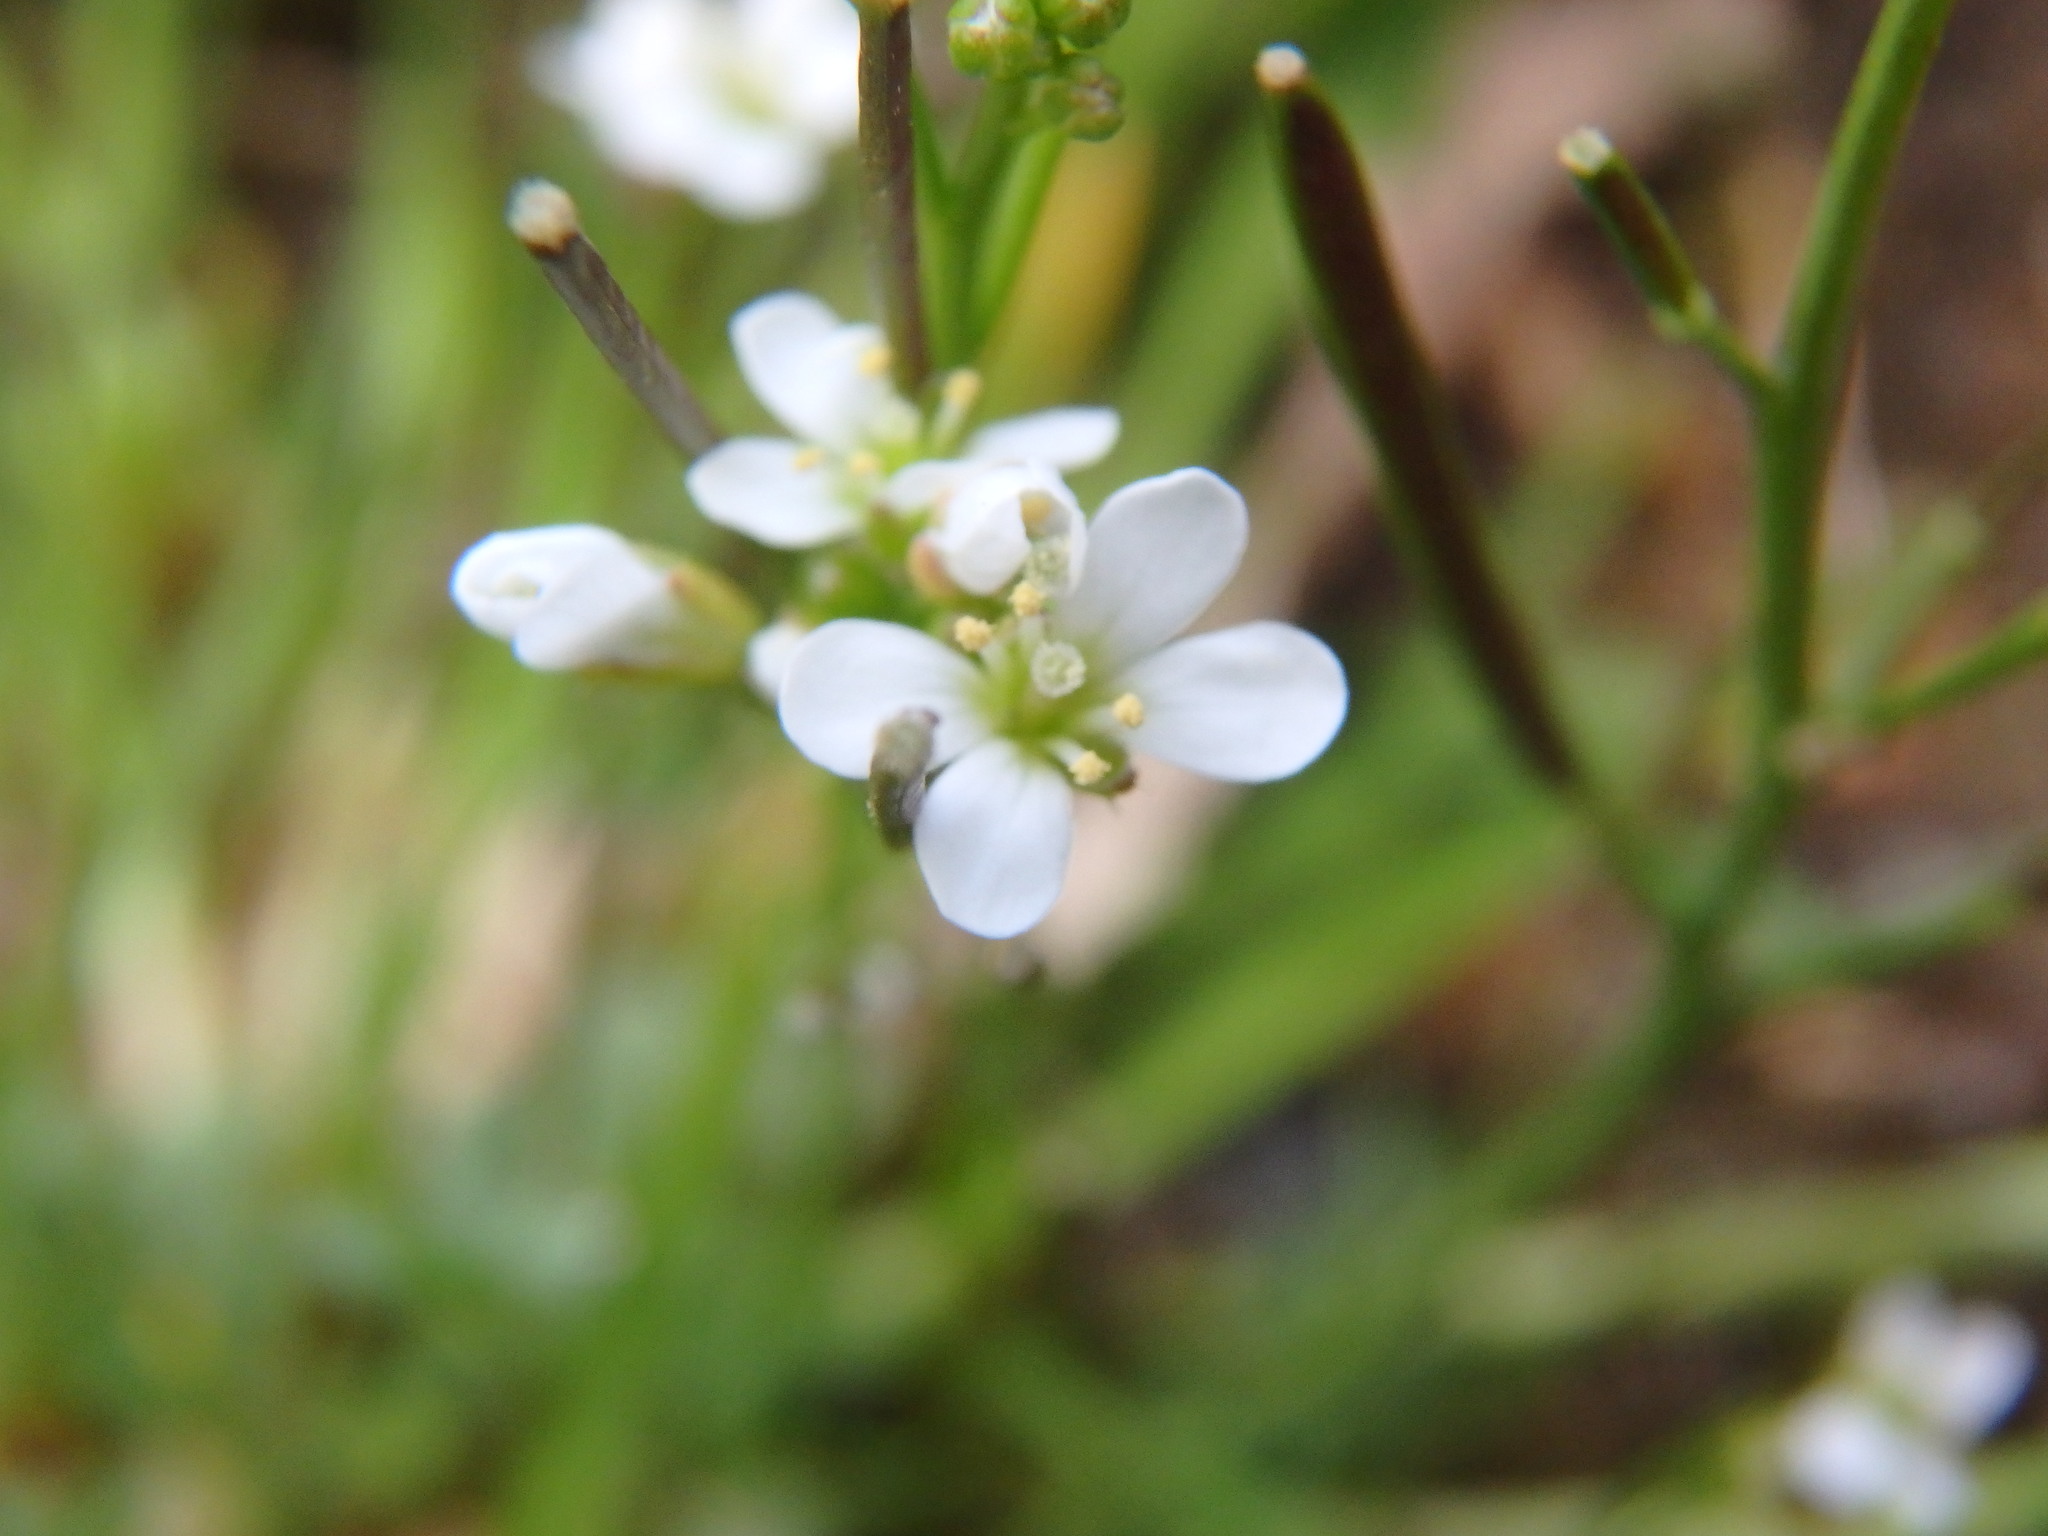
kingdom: Plantae
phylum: Tracheophyta
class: Magnoliopsida
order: Brassicales
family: Brassicaceae
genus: Cardamine
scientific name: Cardamine hirsuta
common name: Hairy bittercress
